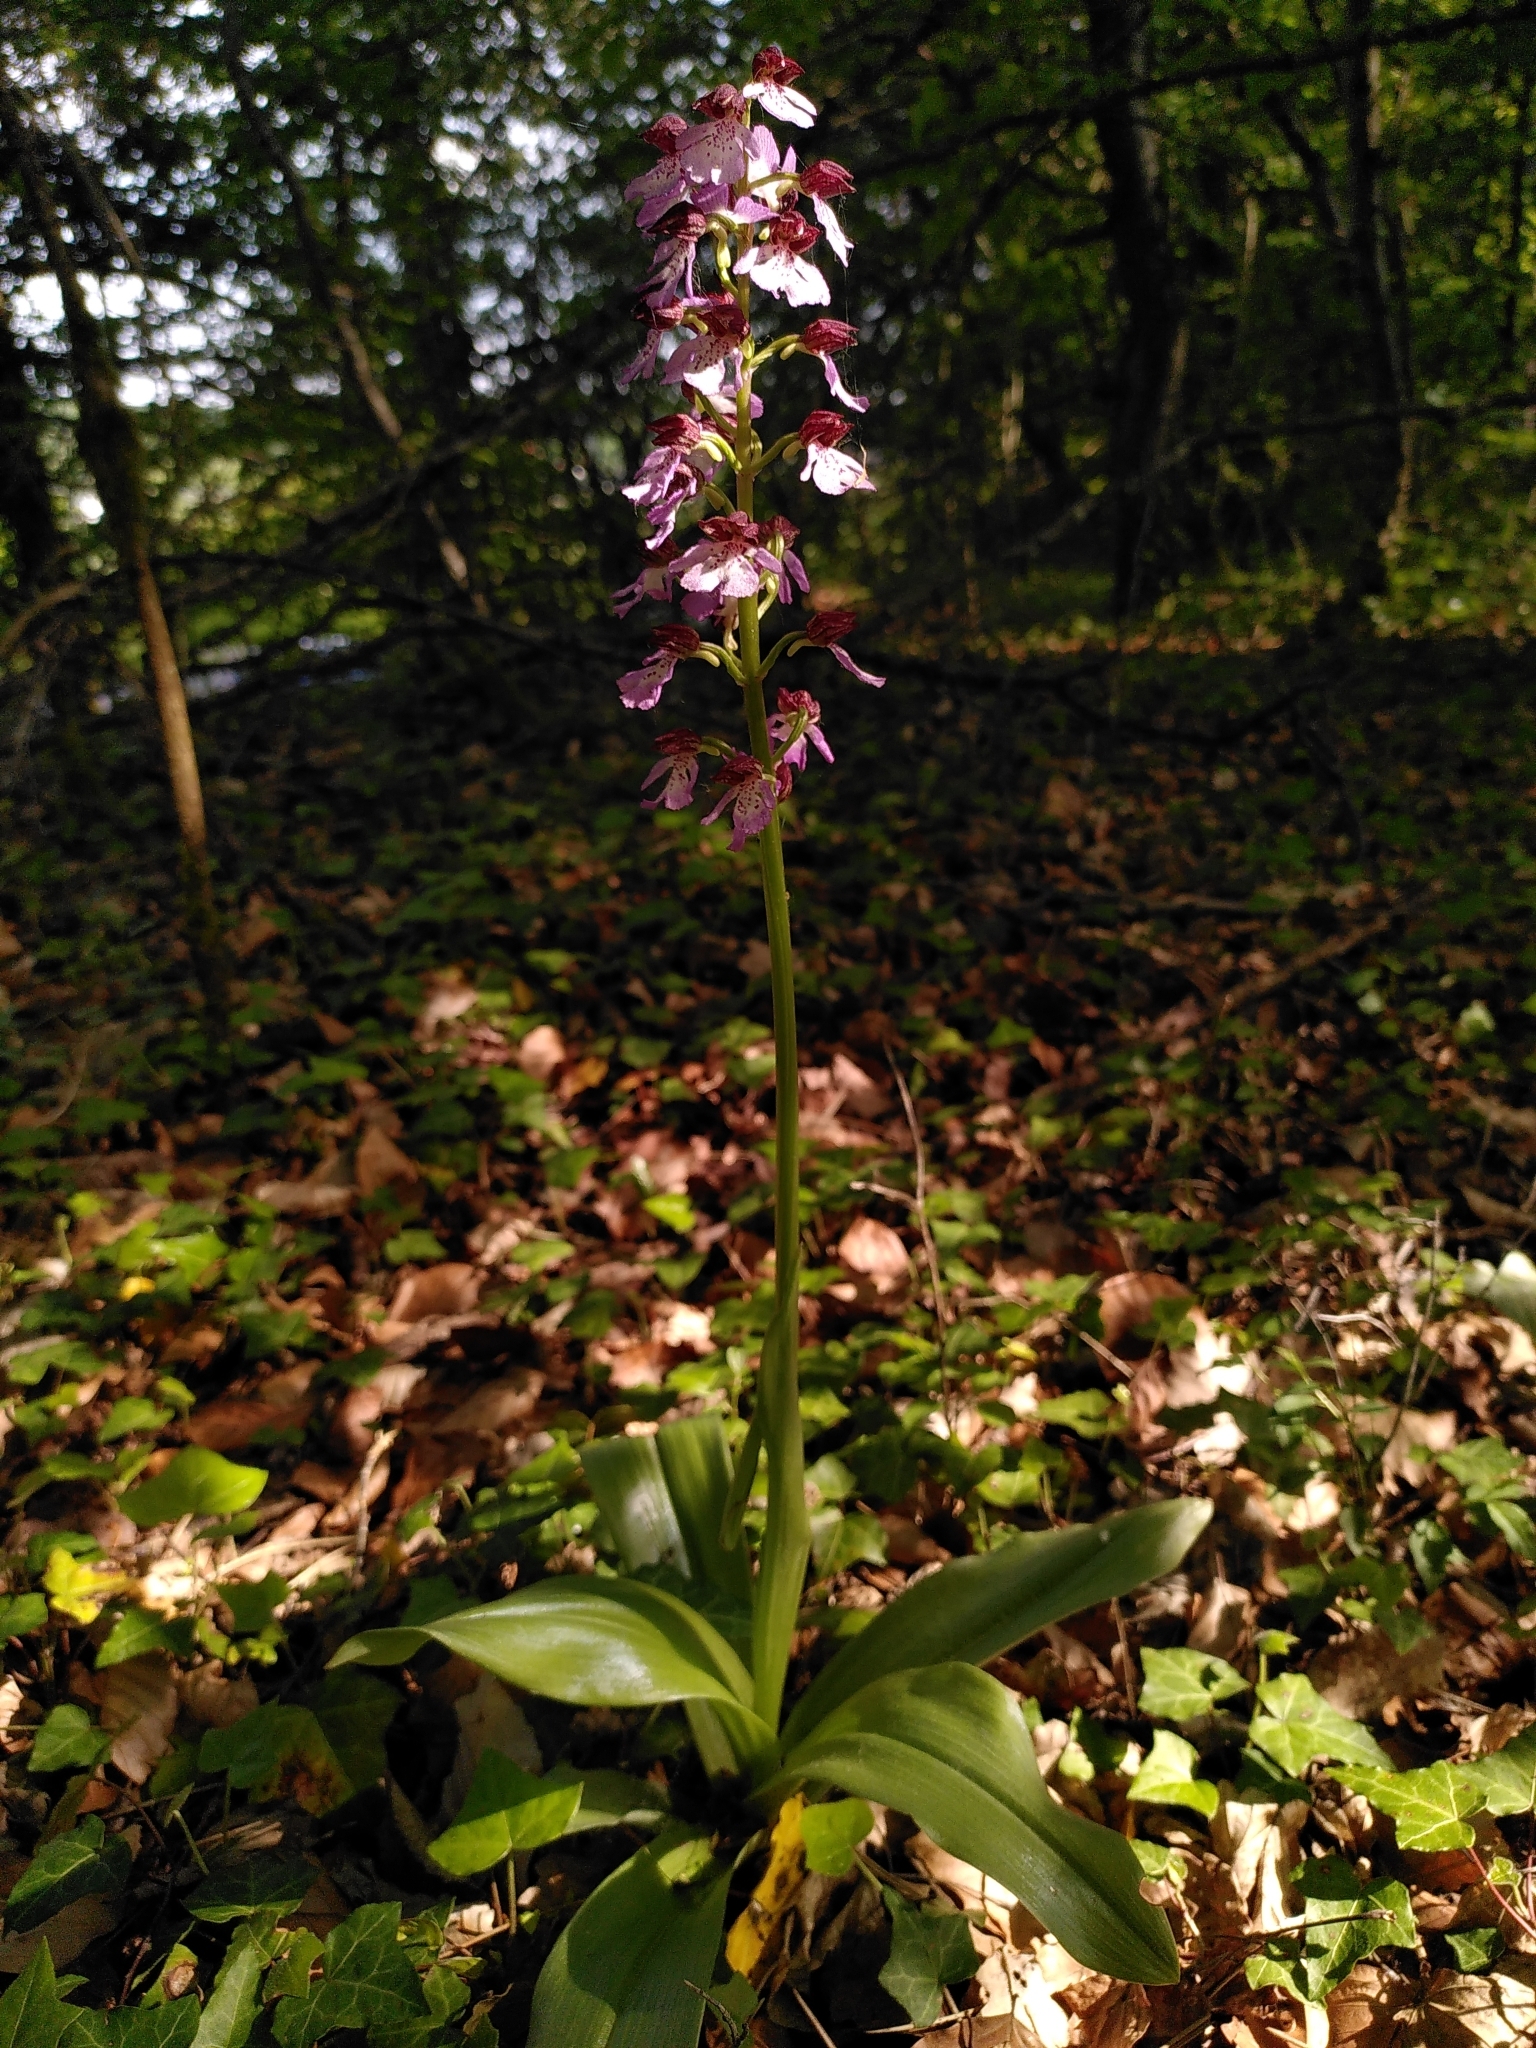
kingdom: Plantae
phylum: Tracheophyta
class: Liliopsida
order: Asparagales
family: Orchidaceae
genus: Orchis
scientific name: Orchis purpurea
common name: Lady orchid
